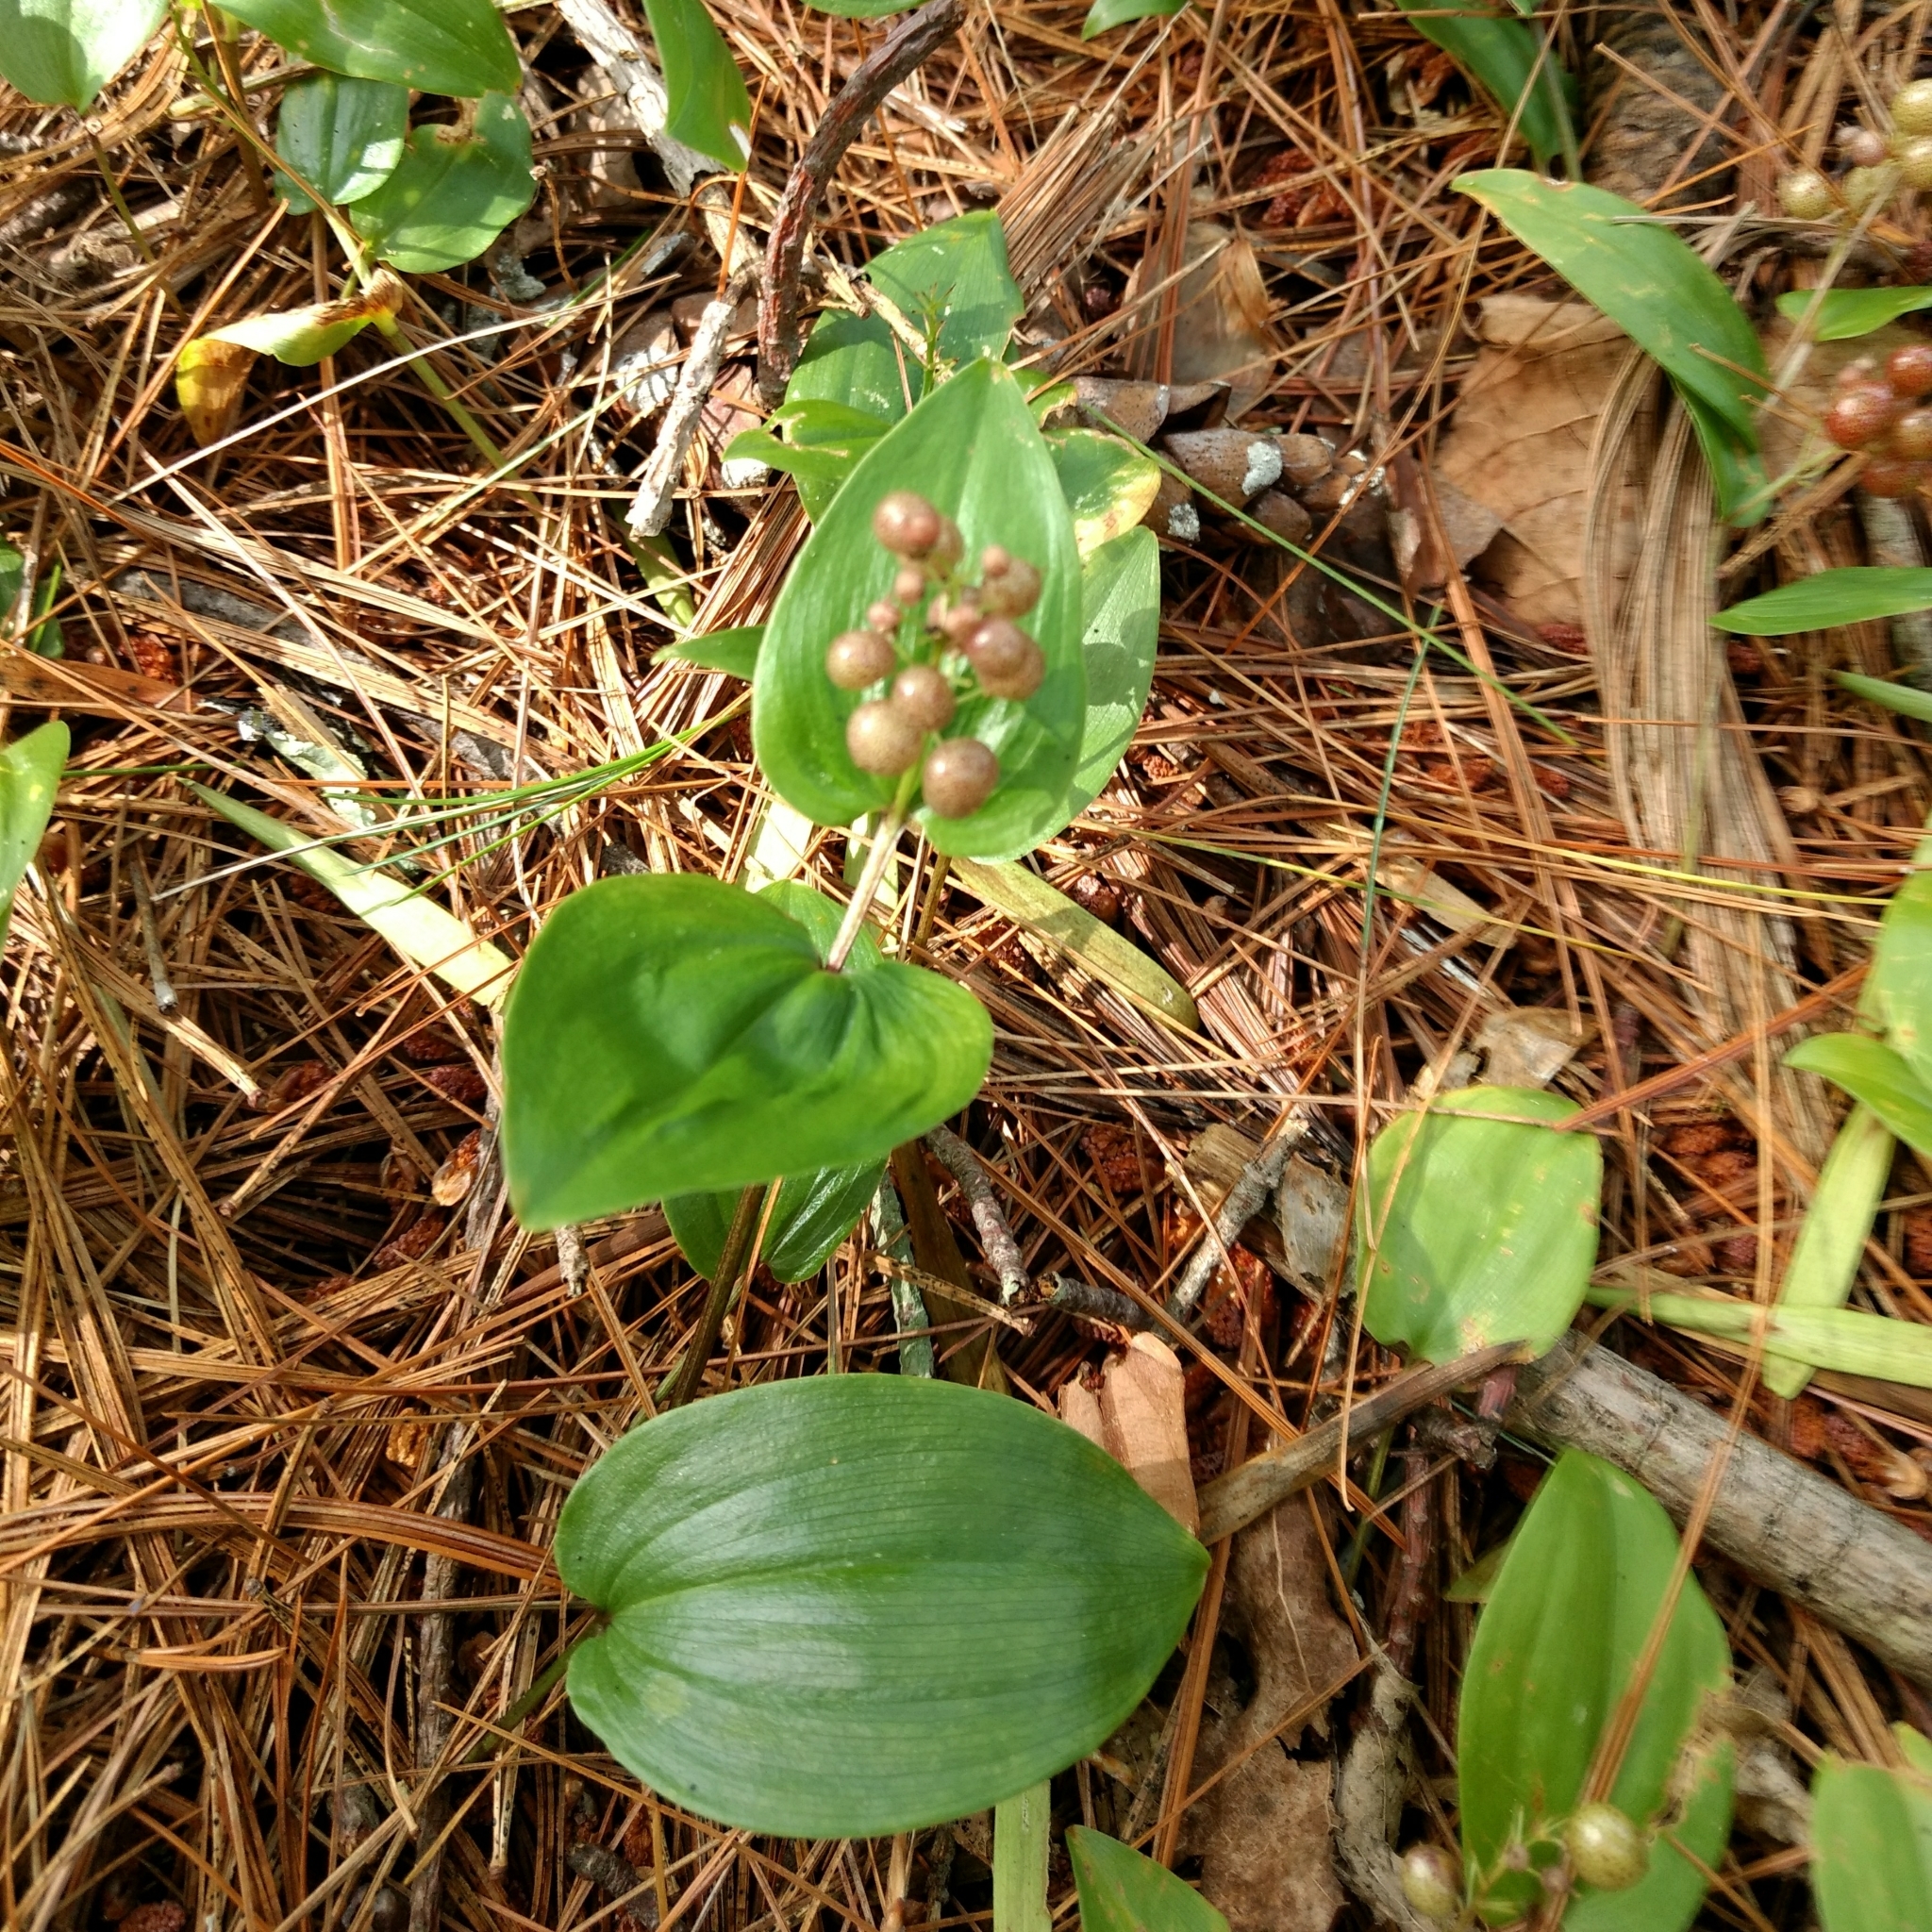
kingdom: Plantae
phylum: Tracheophyta
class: Liliopsida
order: Asparagales
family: Asparagaceae
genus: Maianthemum
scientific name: Maianthemum canadense
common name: False lily-of-the-valley
